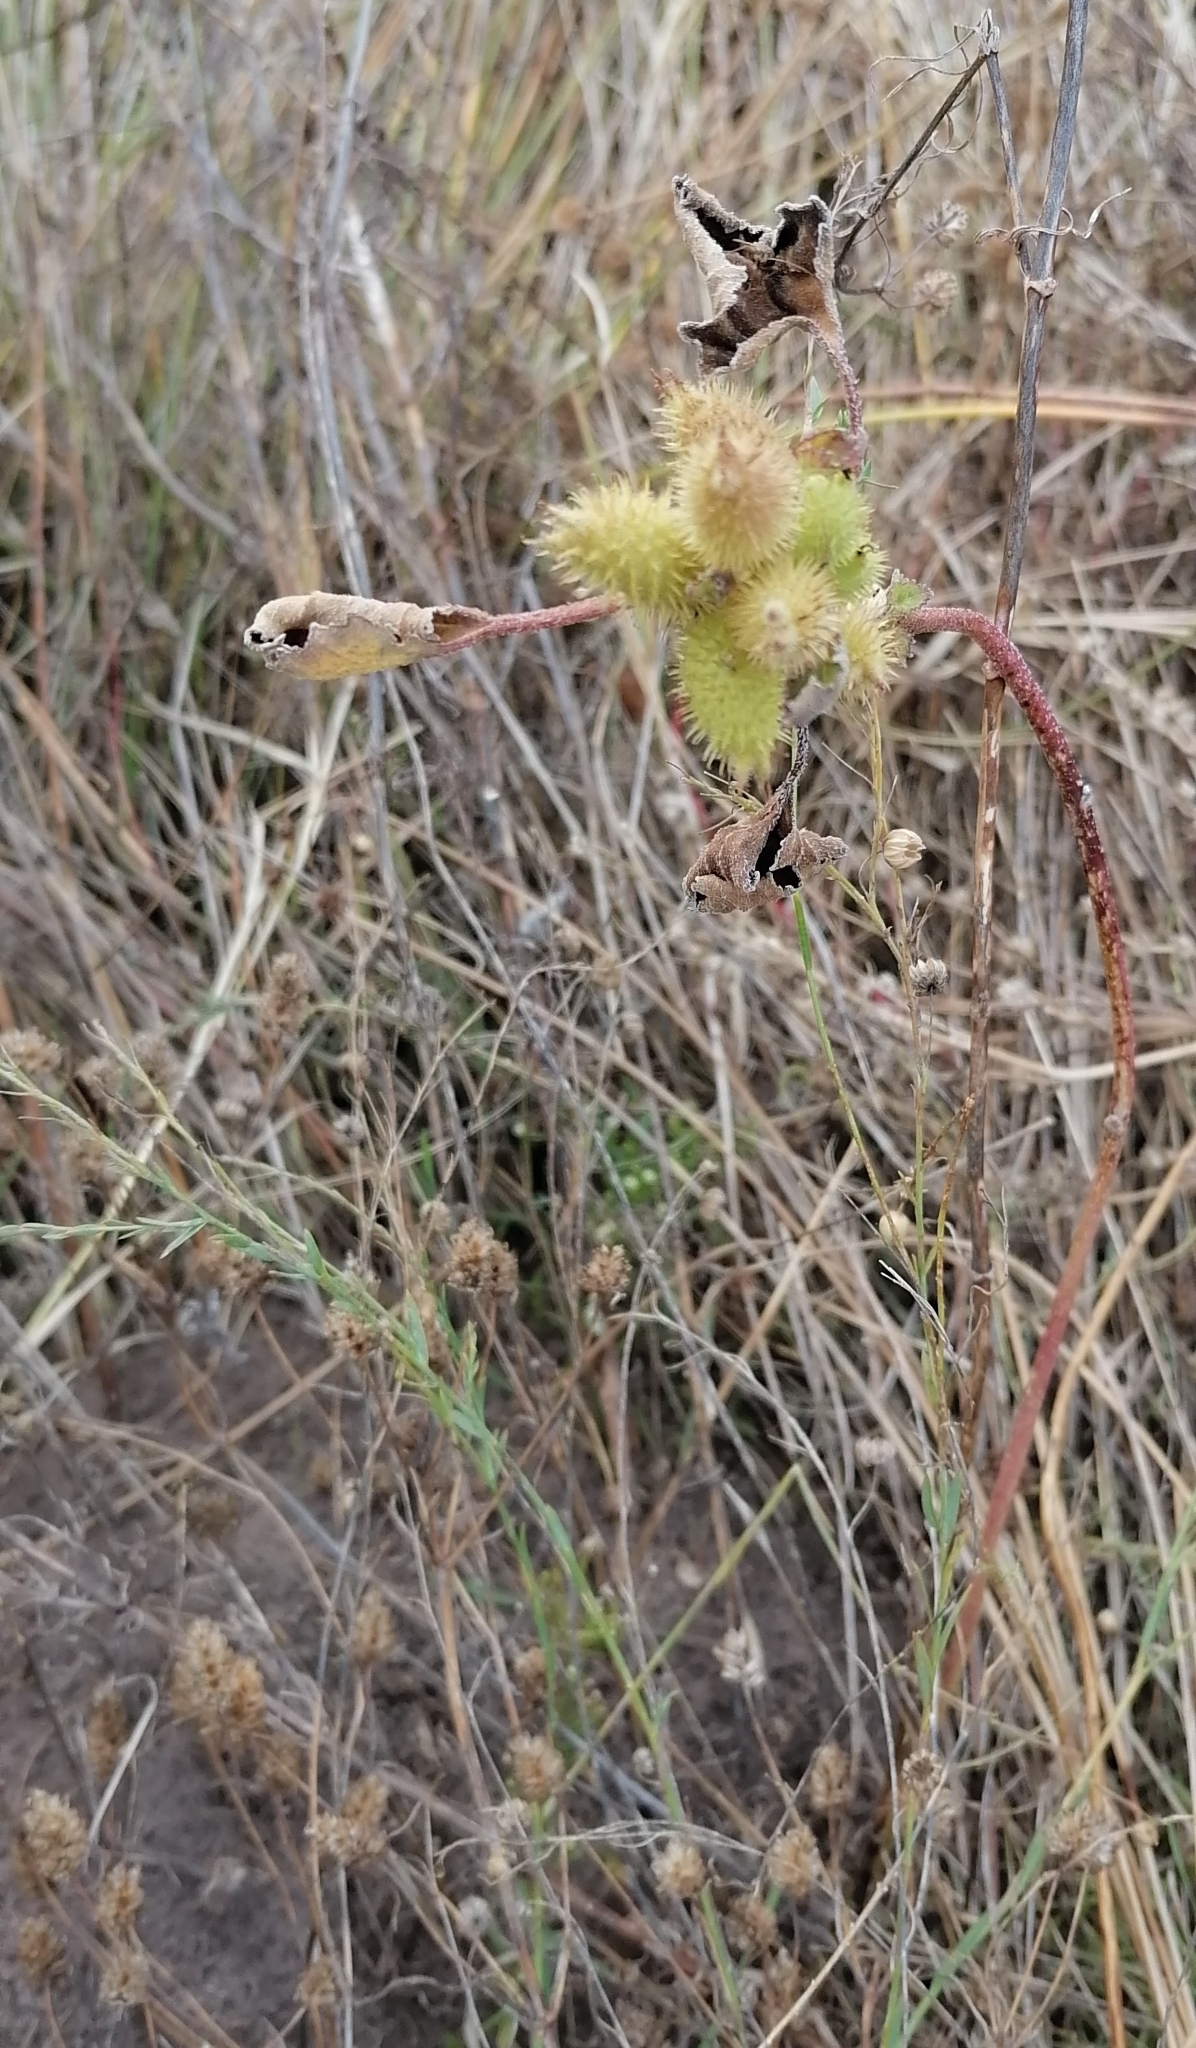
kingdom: Plantae
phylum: Tracheophyta
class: Magnoliopsida
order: Asterales
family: Asteraceae
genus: Xanthium
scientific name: Xanthium orientale
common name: Californian burr
